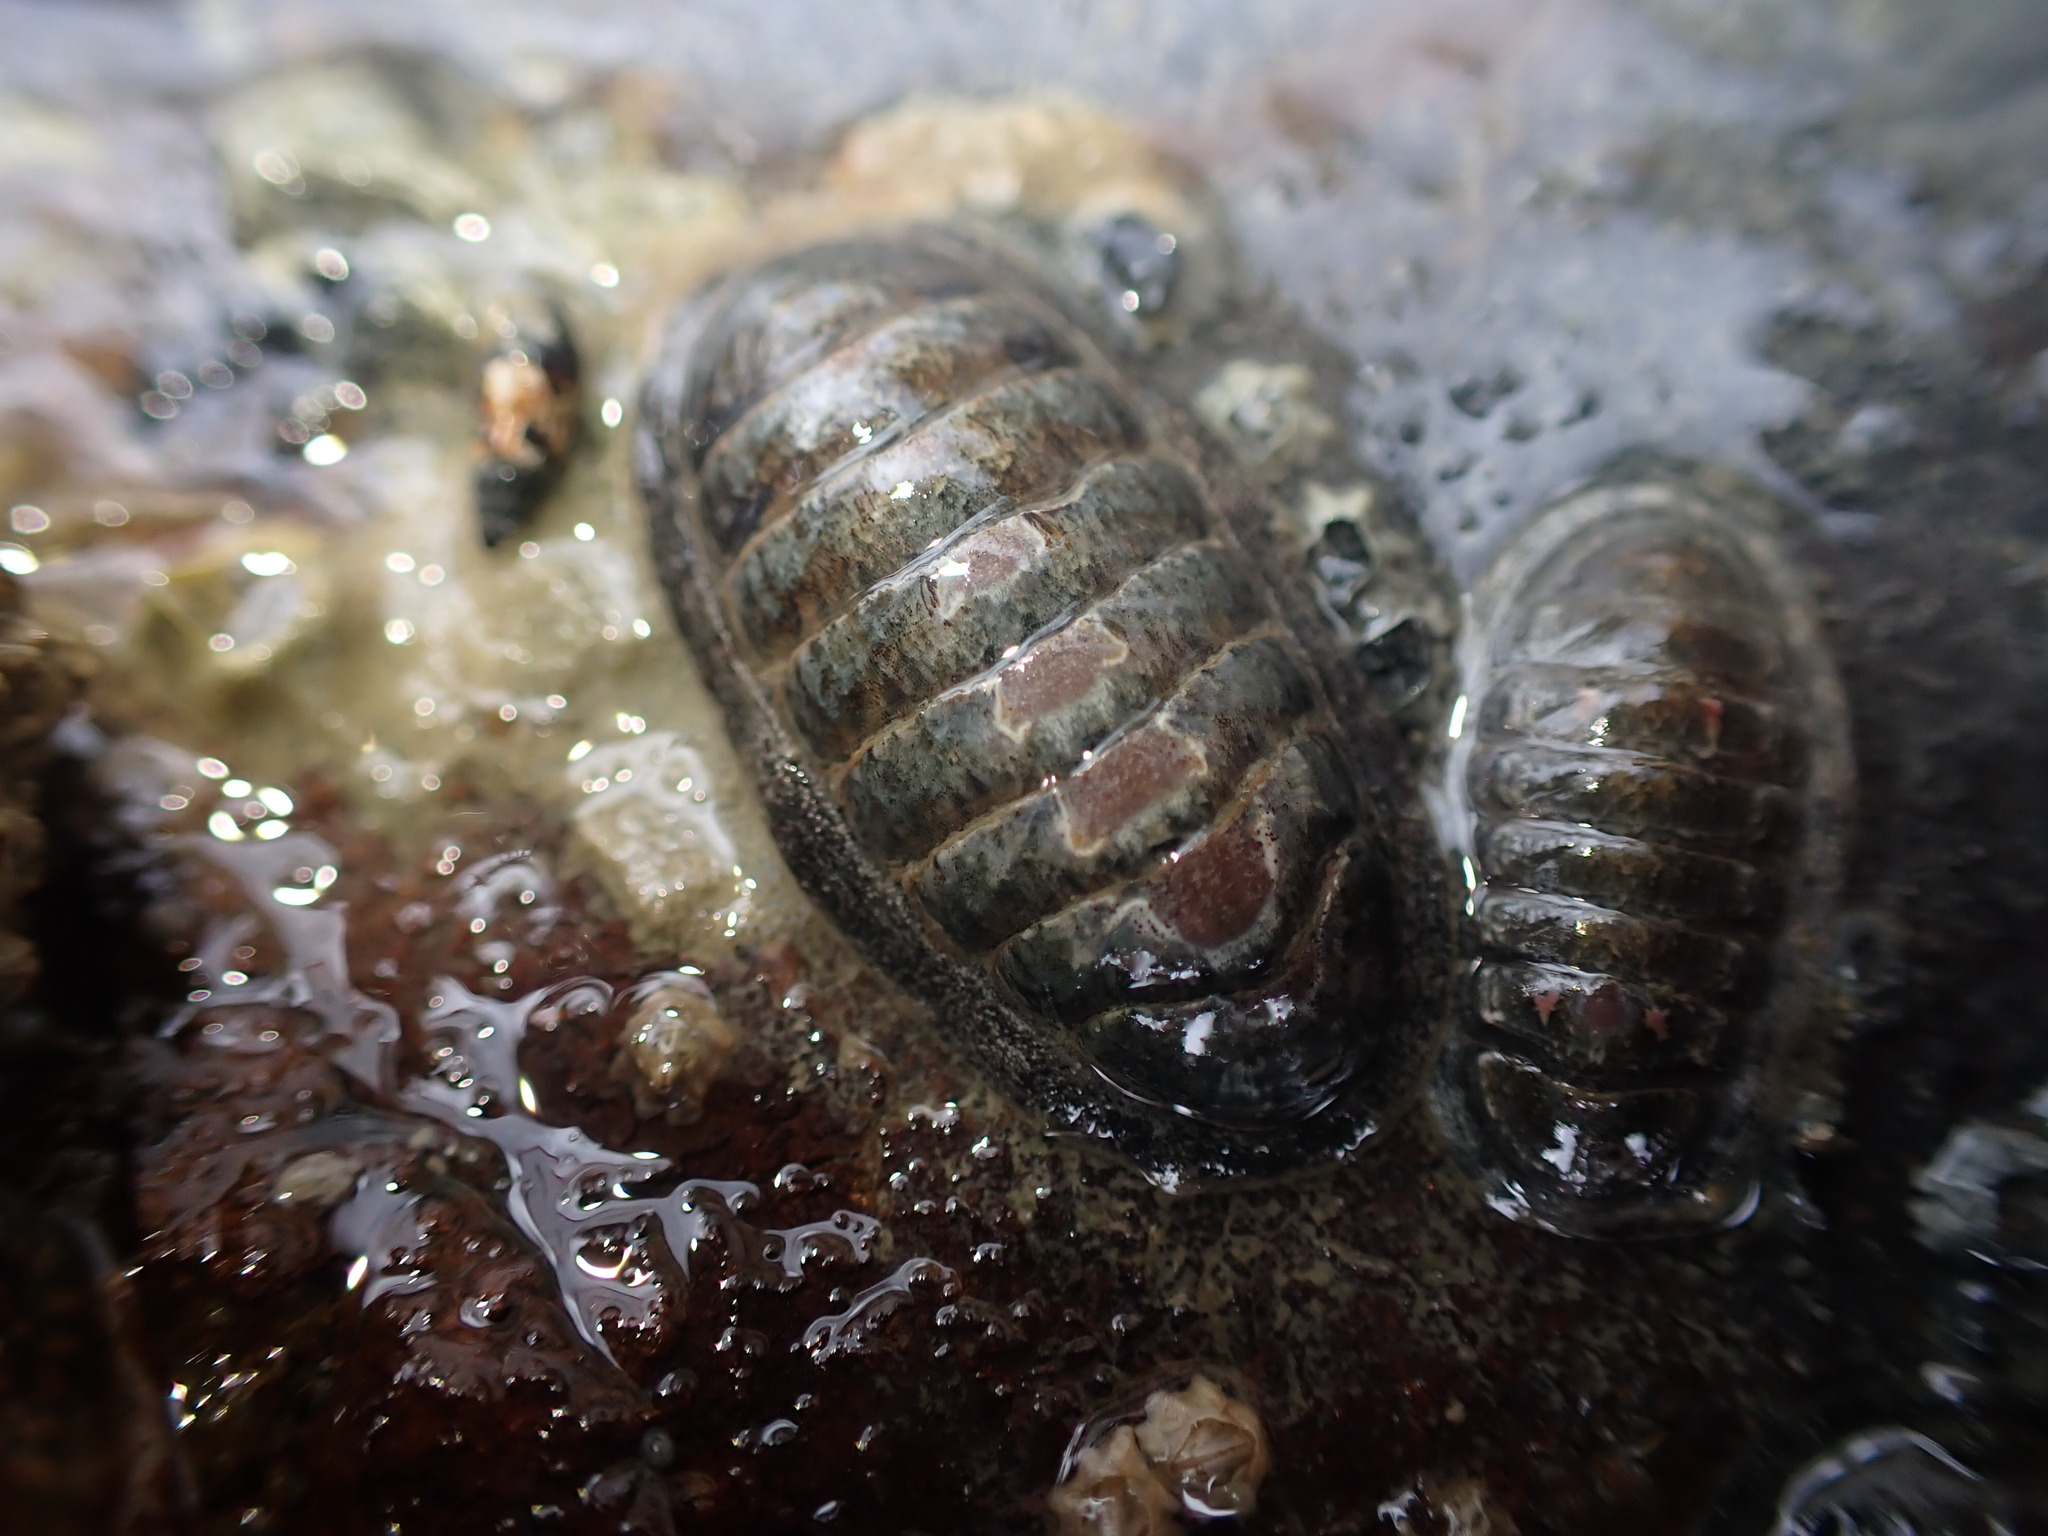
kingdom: Animalia
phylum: Mollusca
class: Polyplacophora
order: Chitonida
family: Ischnochitonidae
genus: Ischnochiton
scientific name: Ischnochiton maorianus
